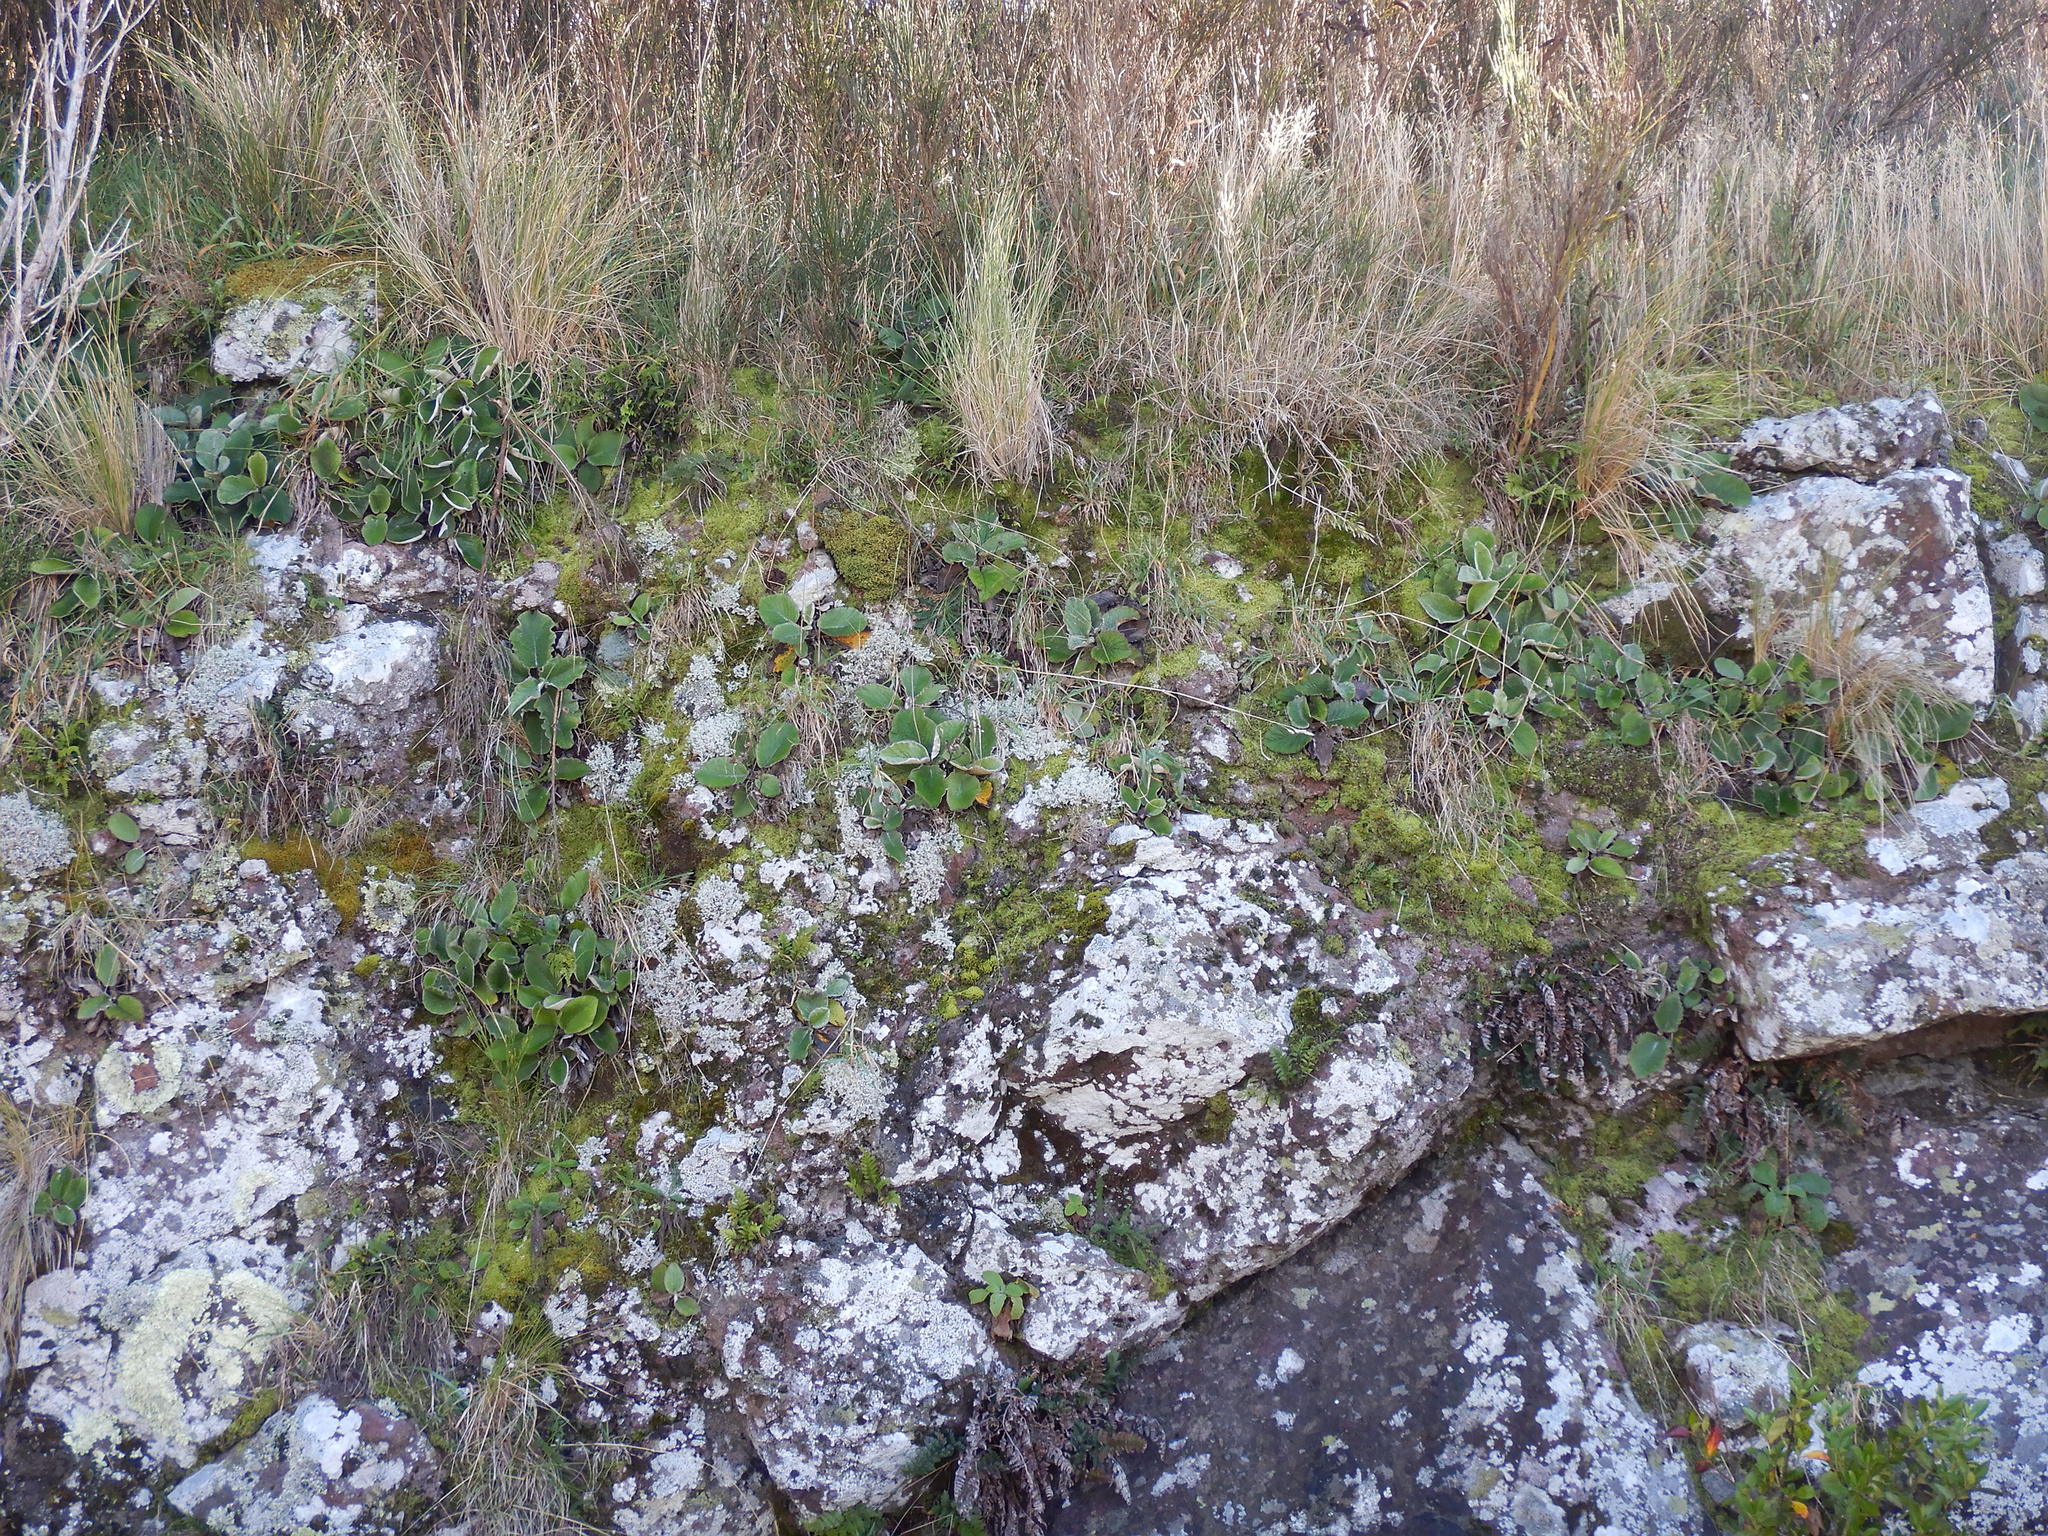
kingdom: Plantae
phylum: Tracheophyta
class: Magnoliopsida
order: Asterales
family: Asteraceae
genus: Brachyglottis
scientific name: Brachyglottis lagopus
